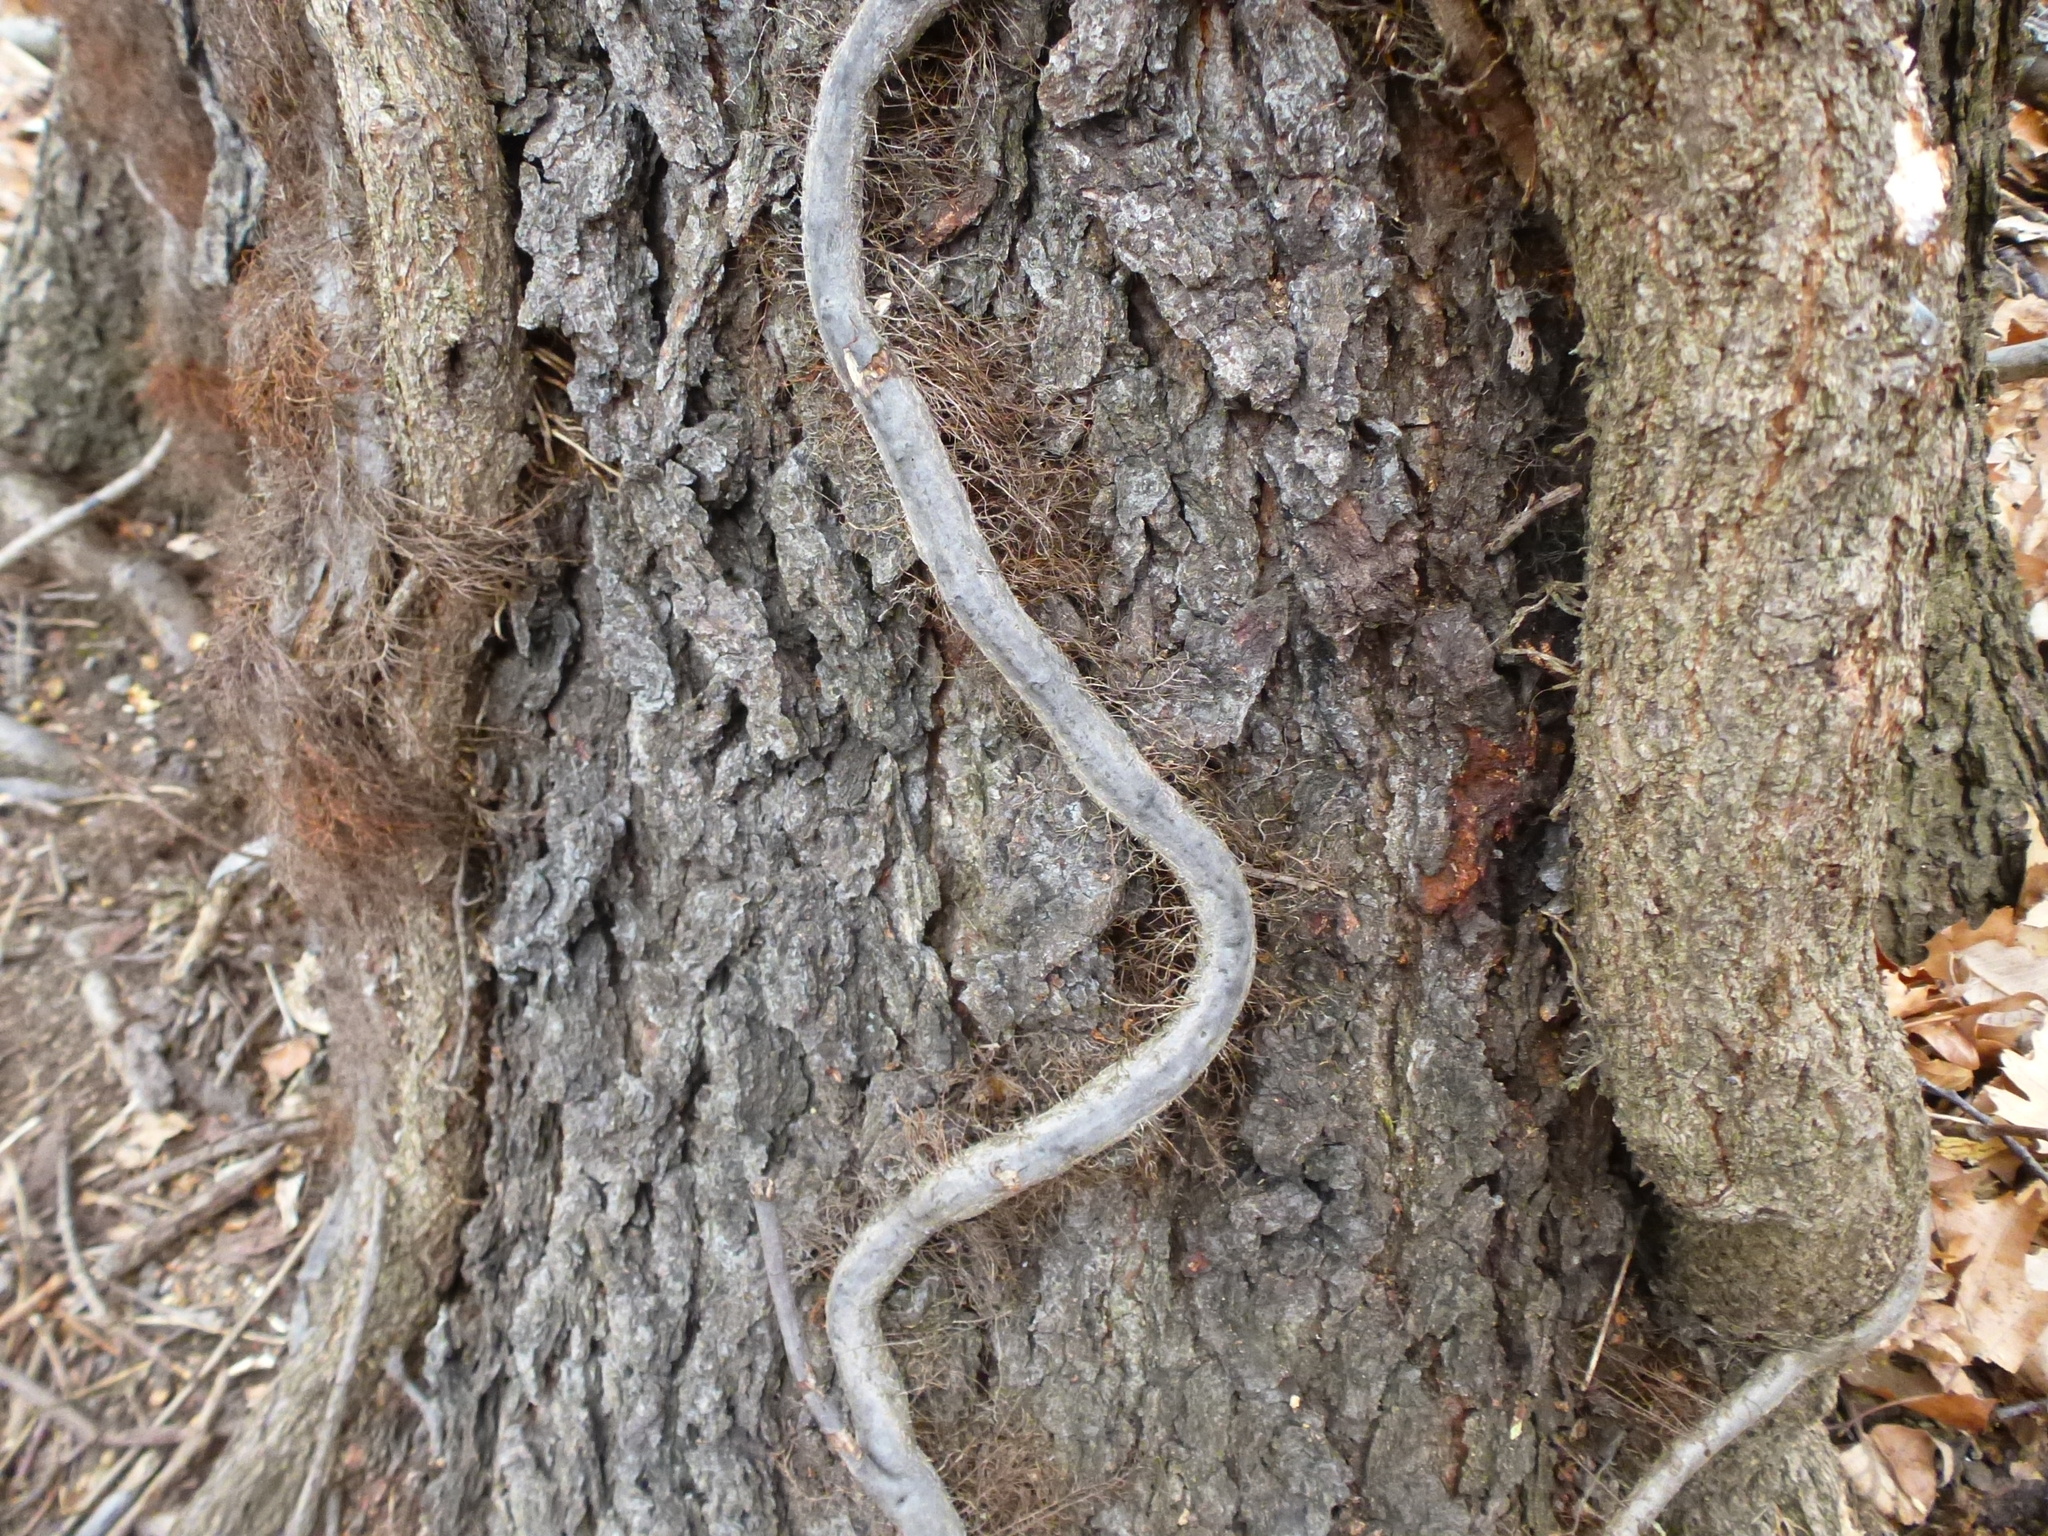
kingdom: Plantae
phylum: Tracheophyta
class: Magnoliopsida
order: Sapindales
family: Anacardiaceae
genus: Toxicodendron
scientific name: Toxicodendron radicans
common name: Poison ivy
